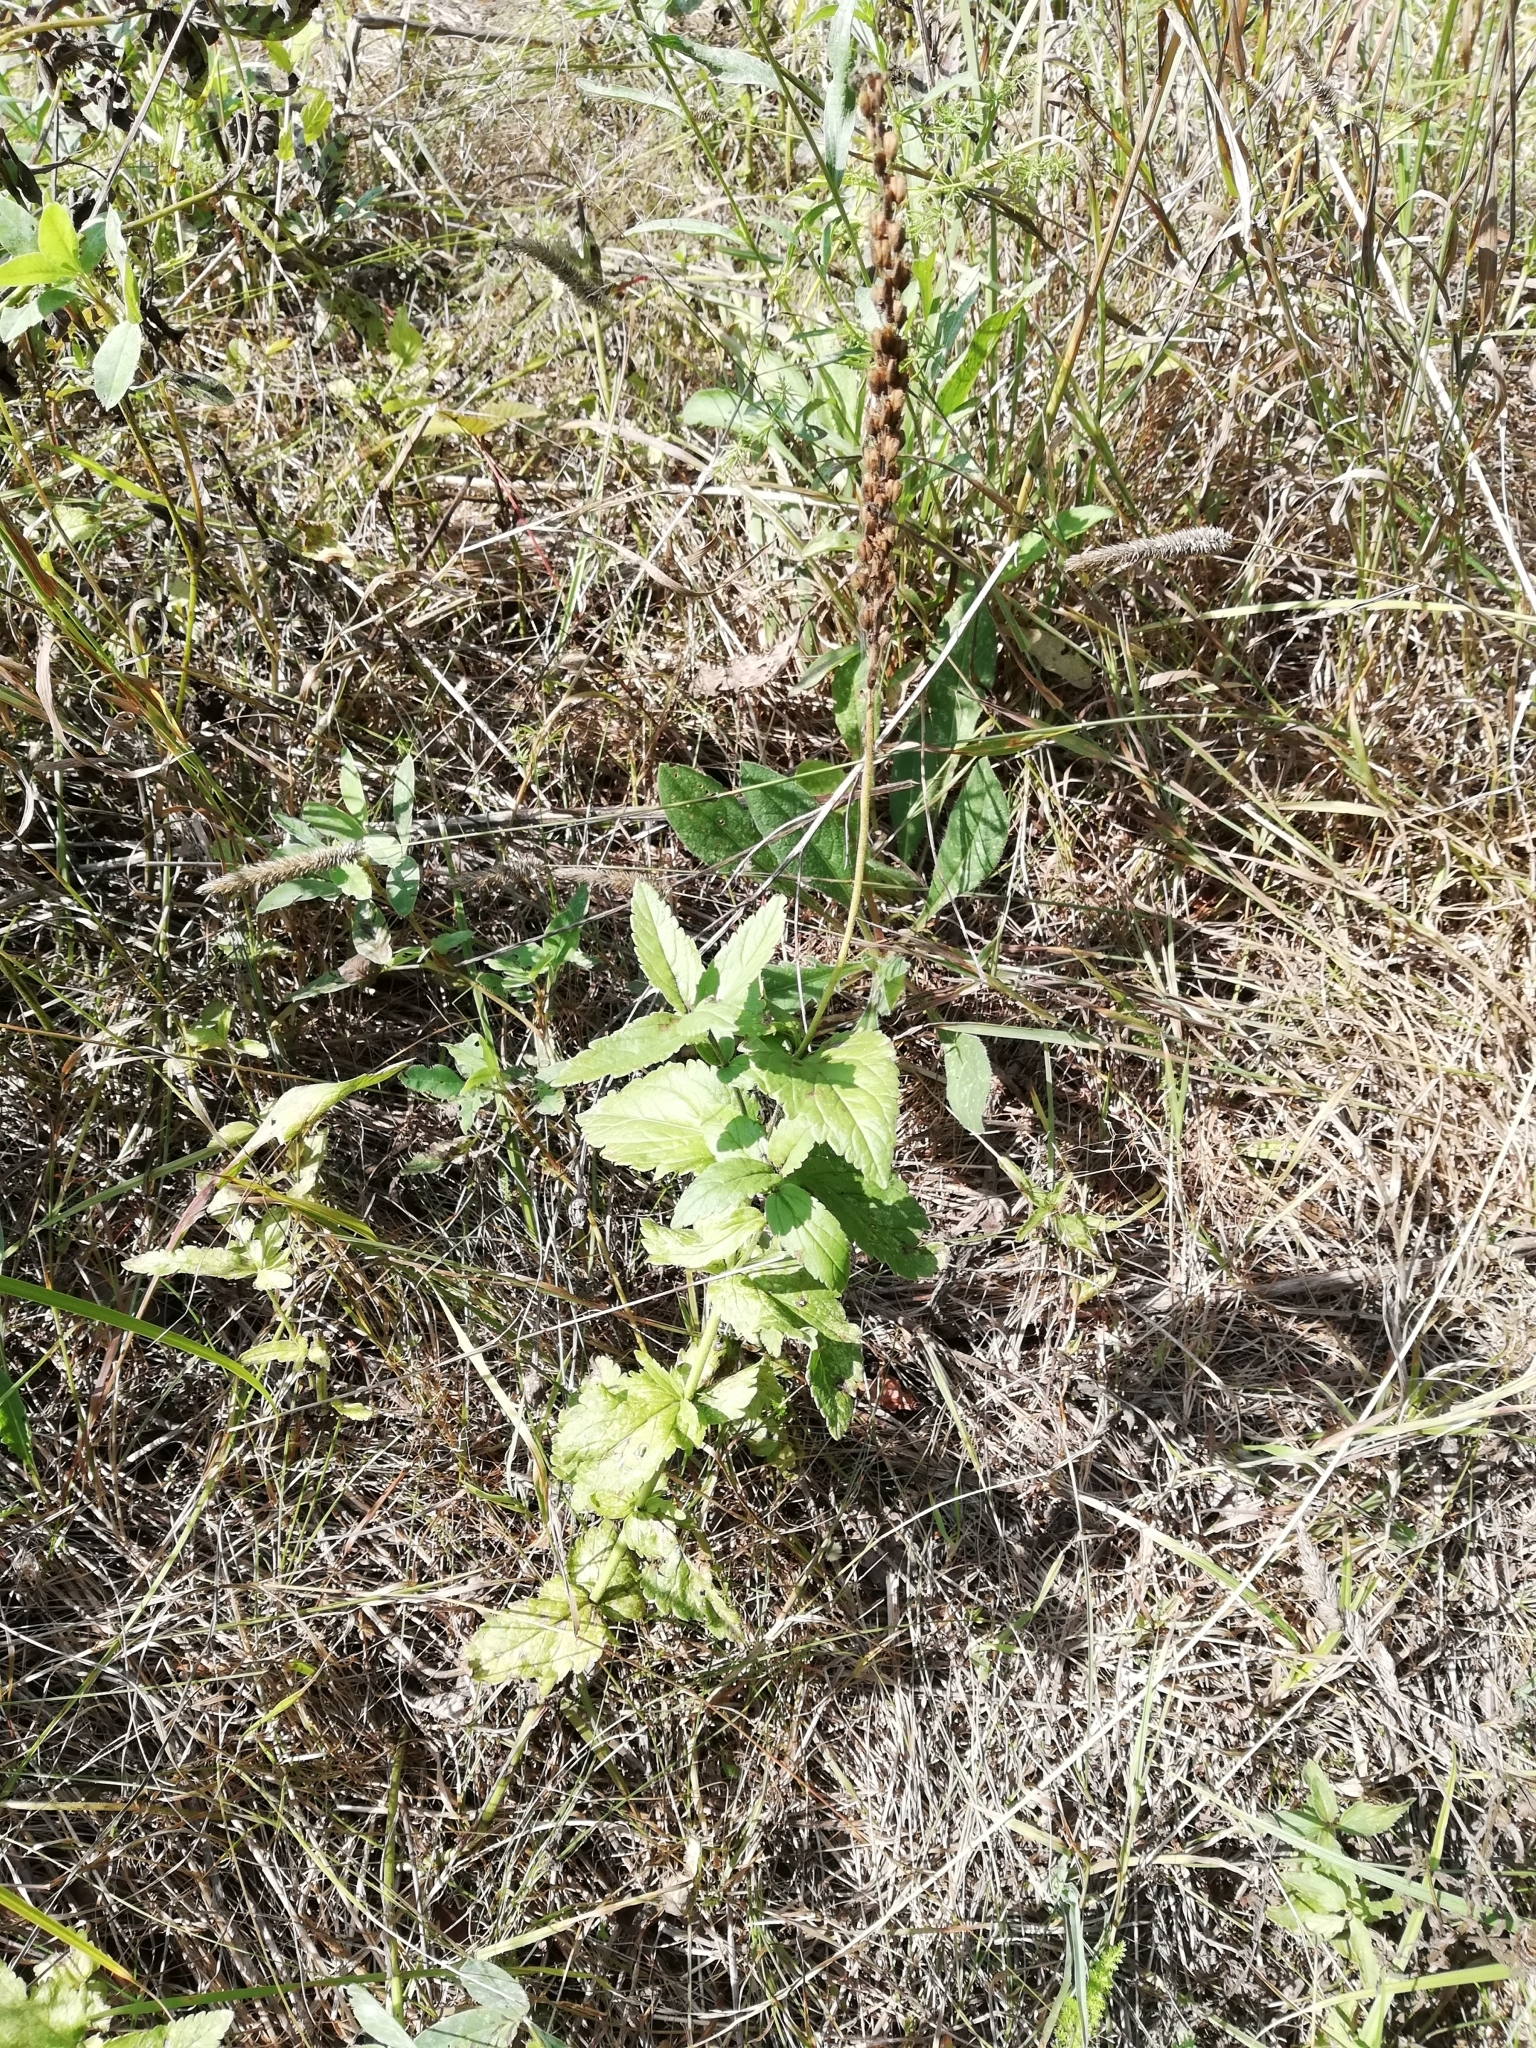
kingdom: Plantae
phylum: Tracheophyta
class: Magnoliopsida
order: Lamiales
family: Plantaginaceae
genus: Veronica
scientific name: Veronica teucrium
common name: Large speedwell
